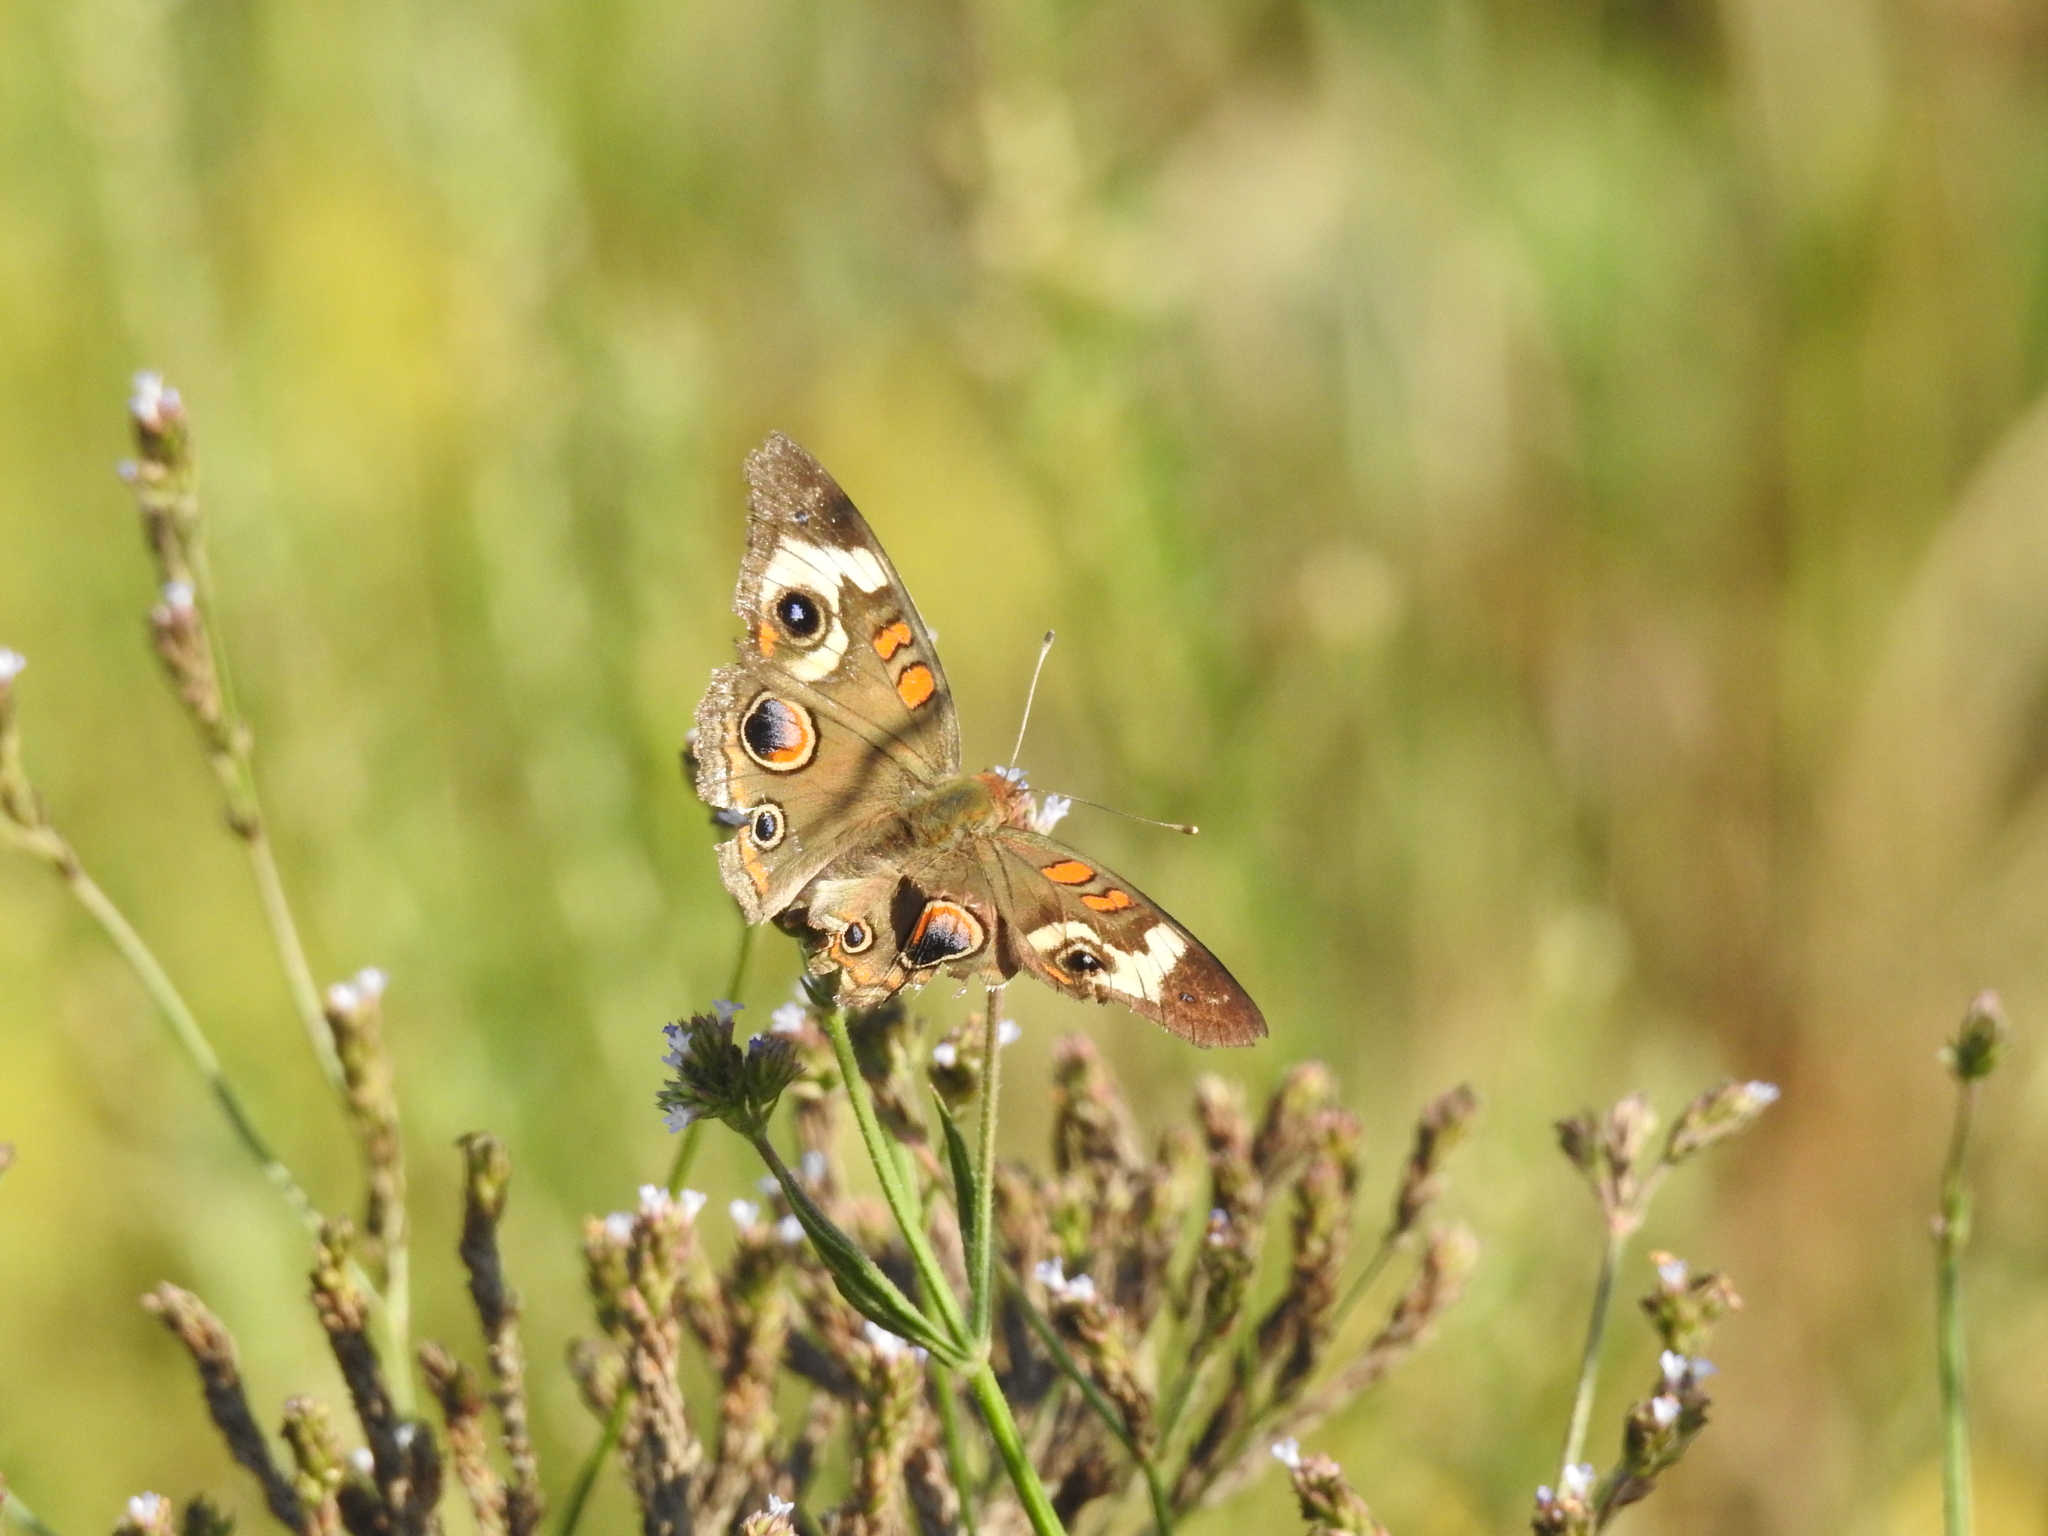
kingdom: Animalia
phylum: Arthropoda
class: Insecta
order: Lepidoptera
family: Nymphalidae
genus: Junonia
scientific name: Junonia coenia
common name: Common buckeye
